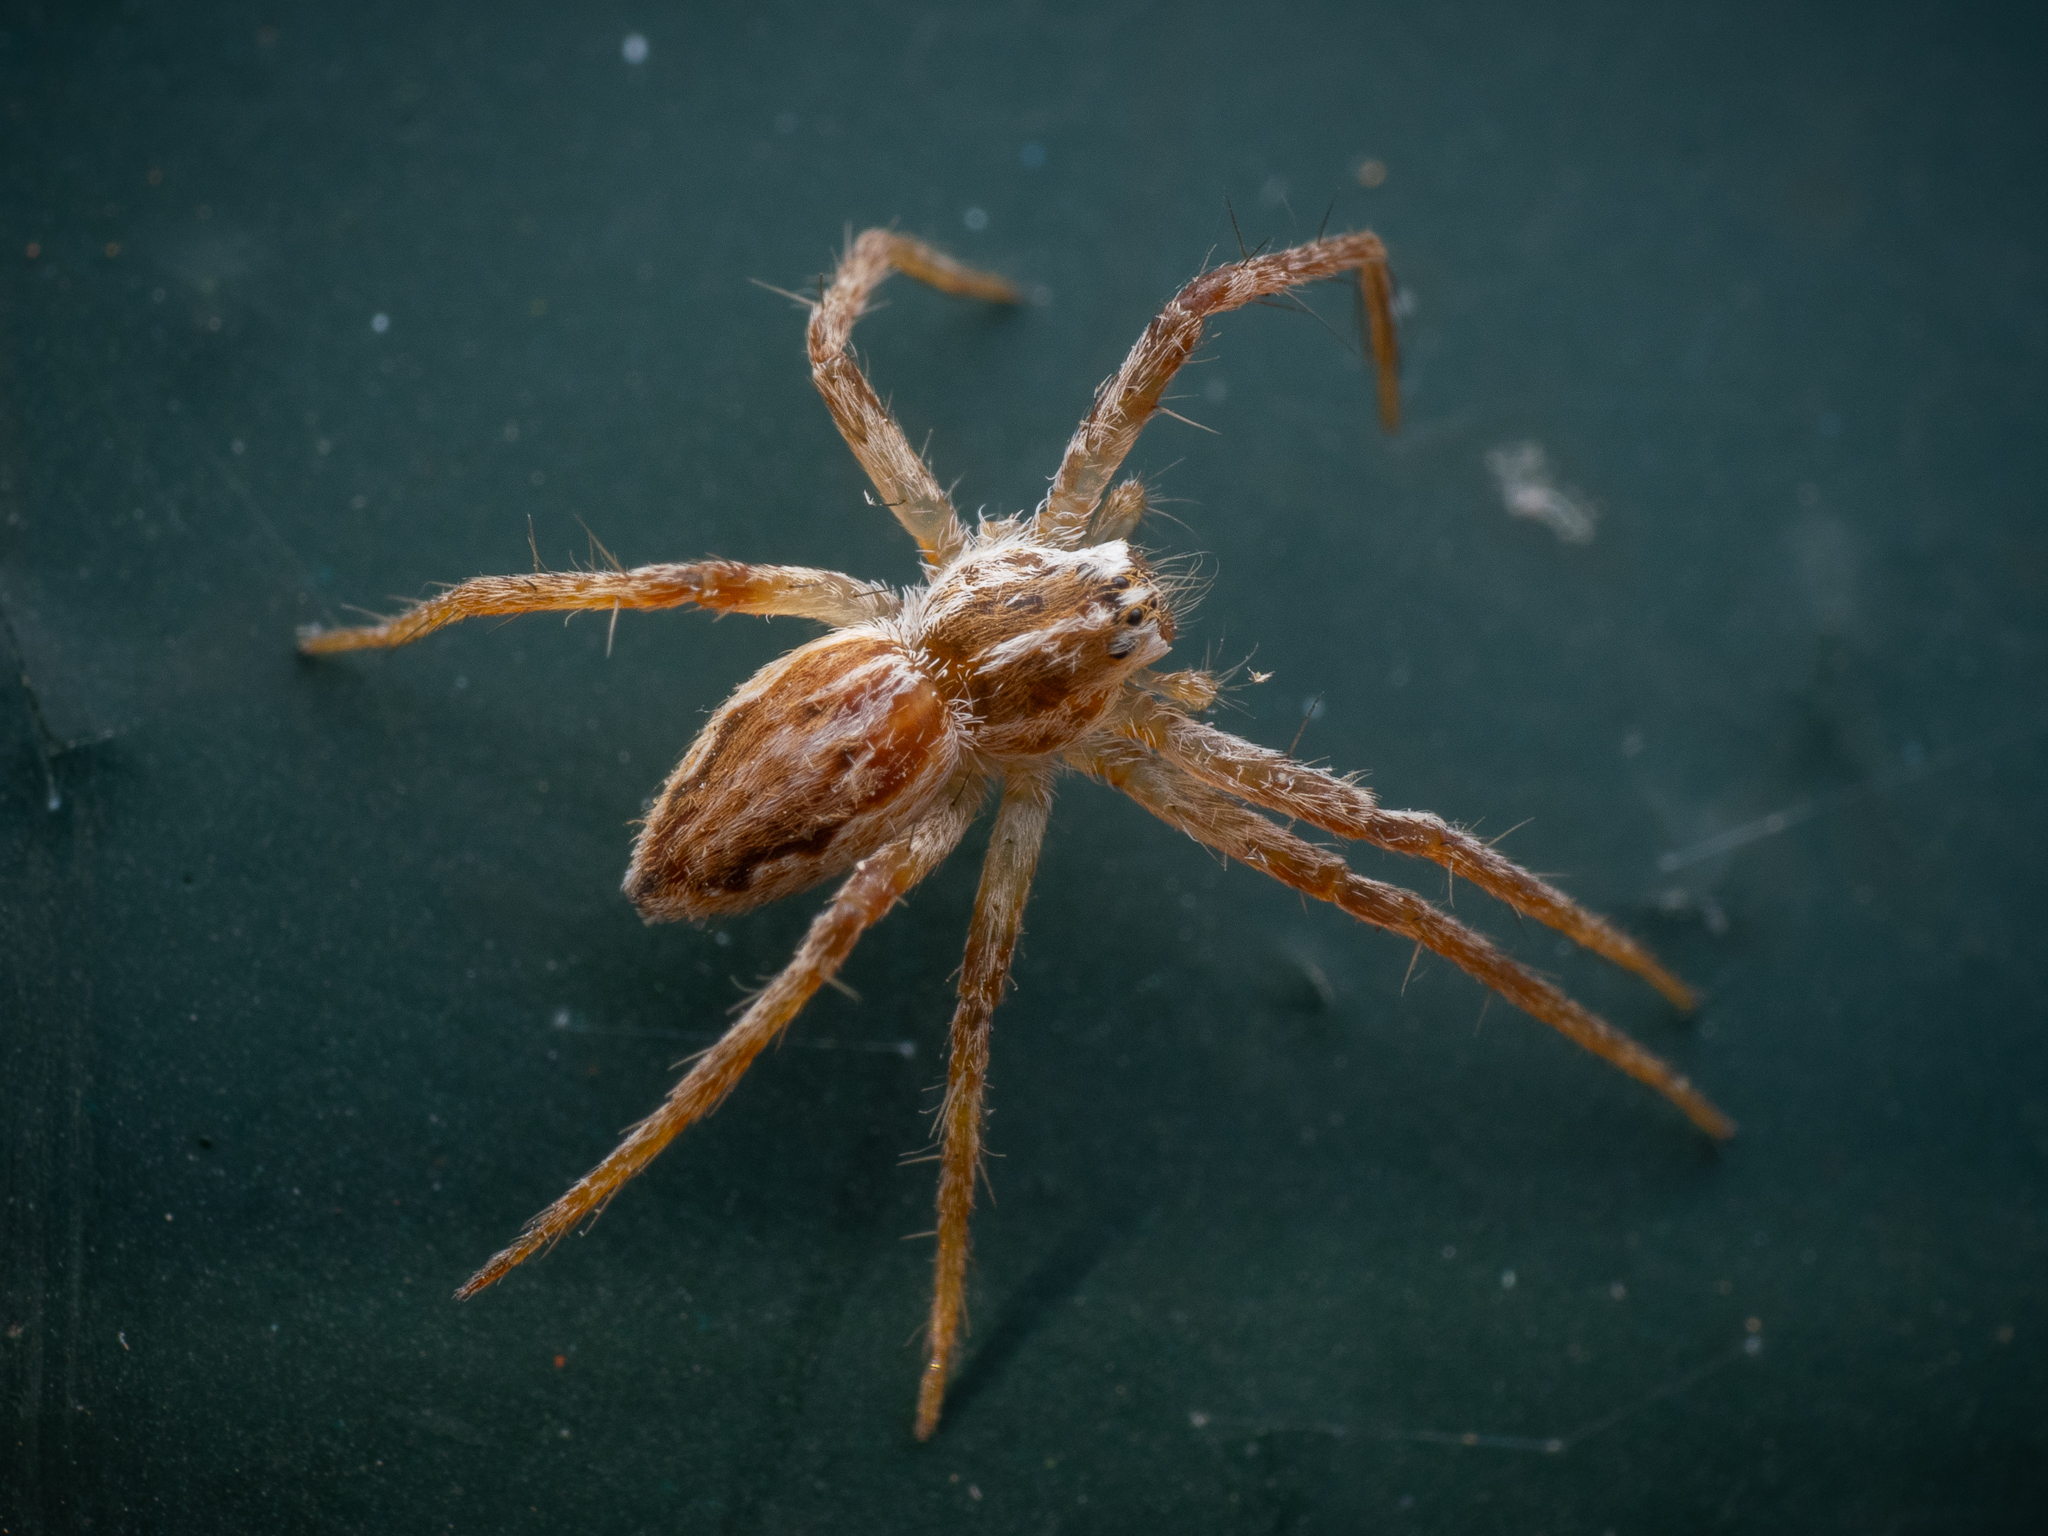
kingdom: Animalia
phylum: Arthropoda
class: Arachnida
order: Araneae
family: Pisauridae
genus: Pisaura
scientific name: Pisaura mirabilis
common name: Tent spider
